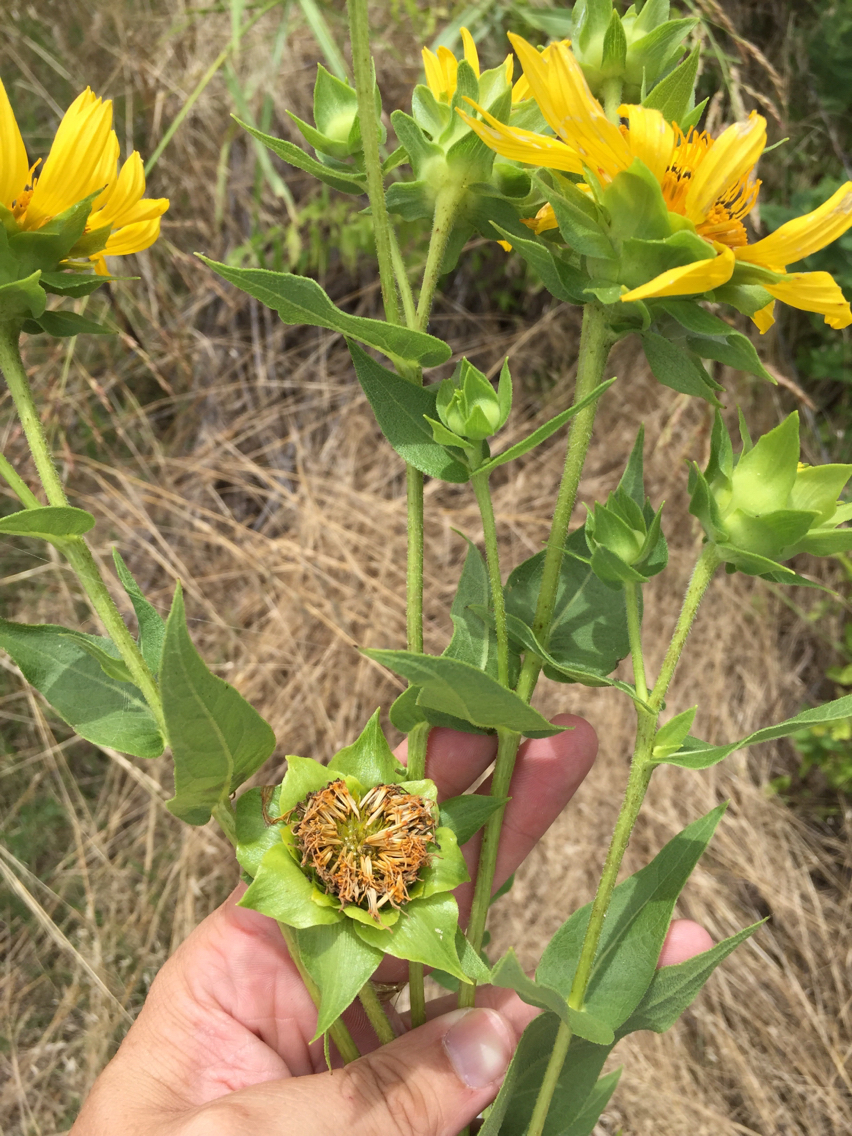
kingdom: Plantae
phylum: Tracheophyta
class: Magnoliopsida
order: Asterales
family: Asteraceae
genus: Helianthus
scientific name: Helianthus maximiliani
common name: Maximilian's sunflower
